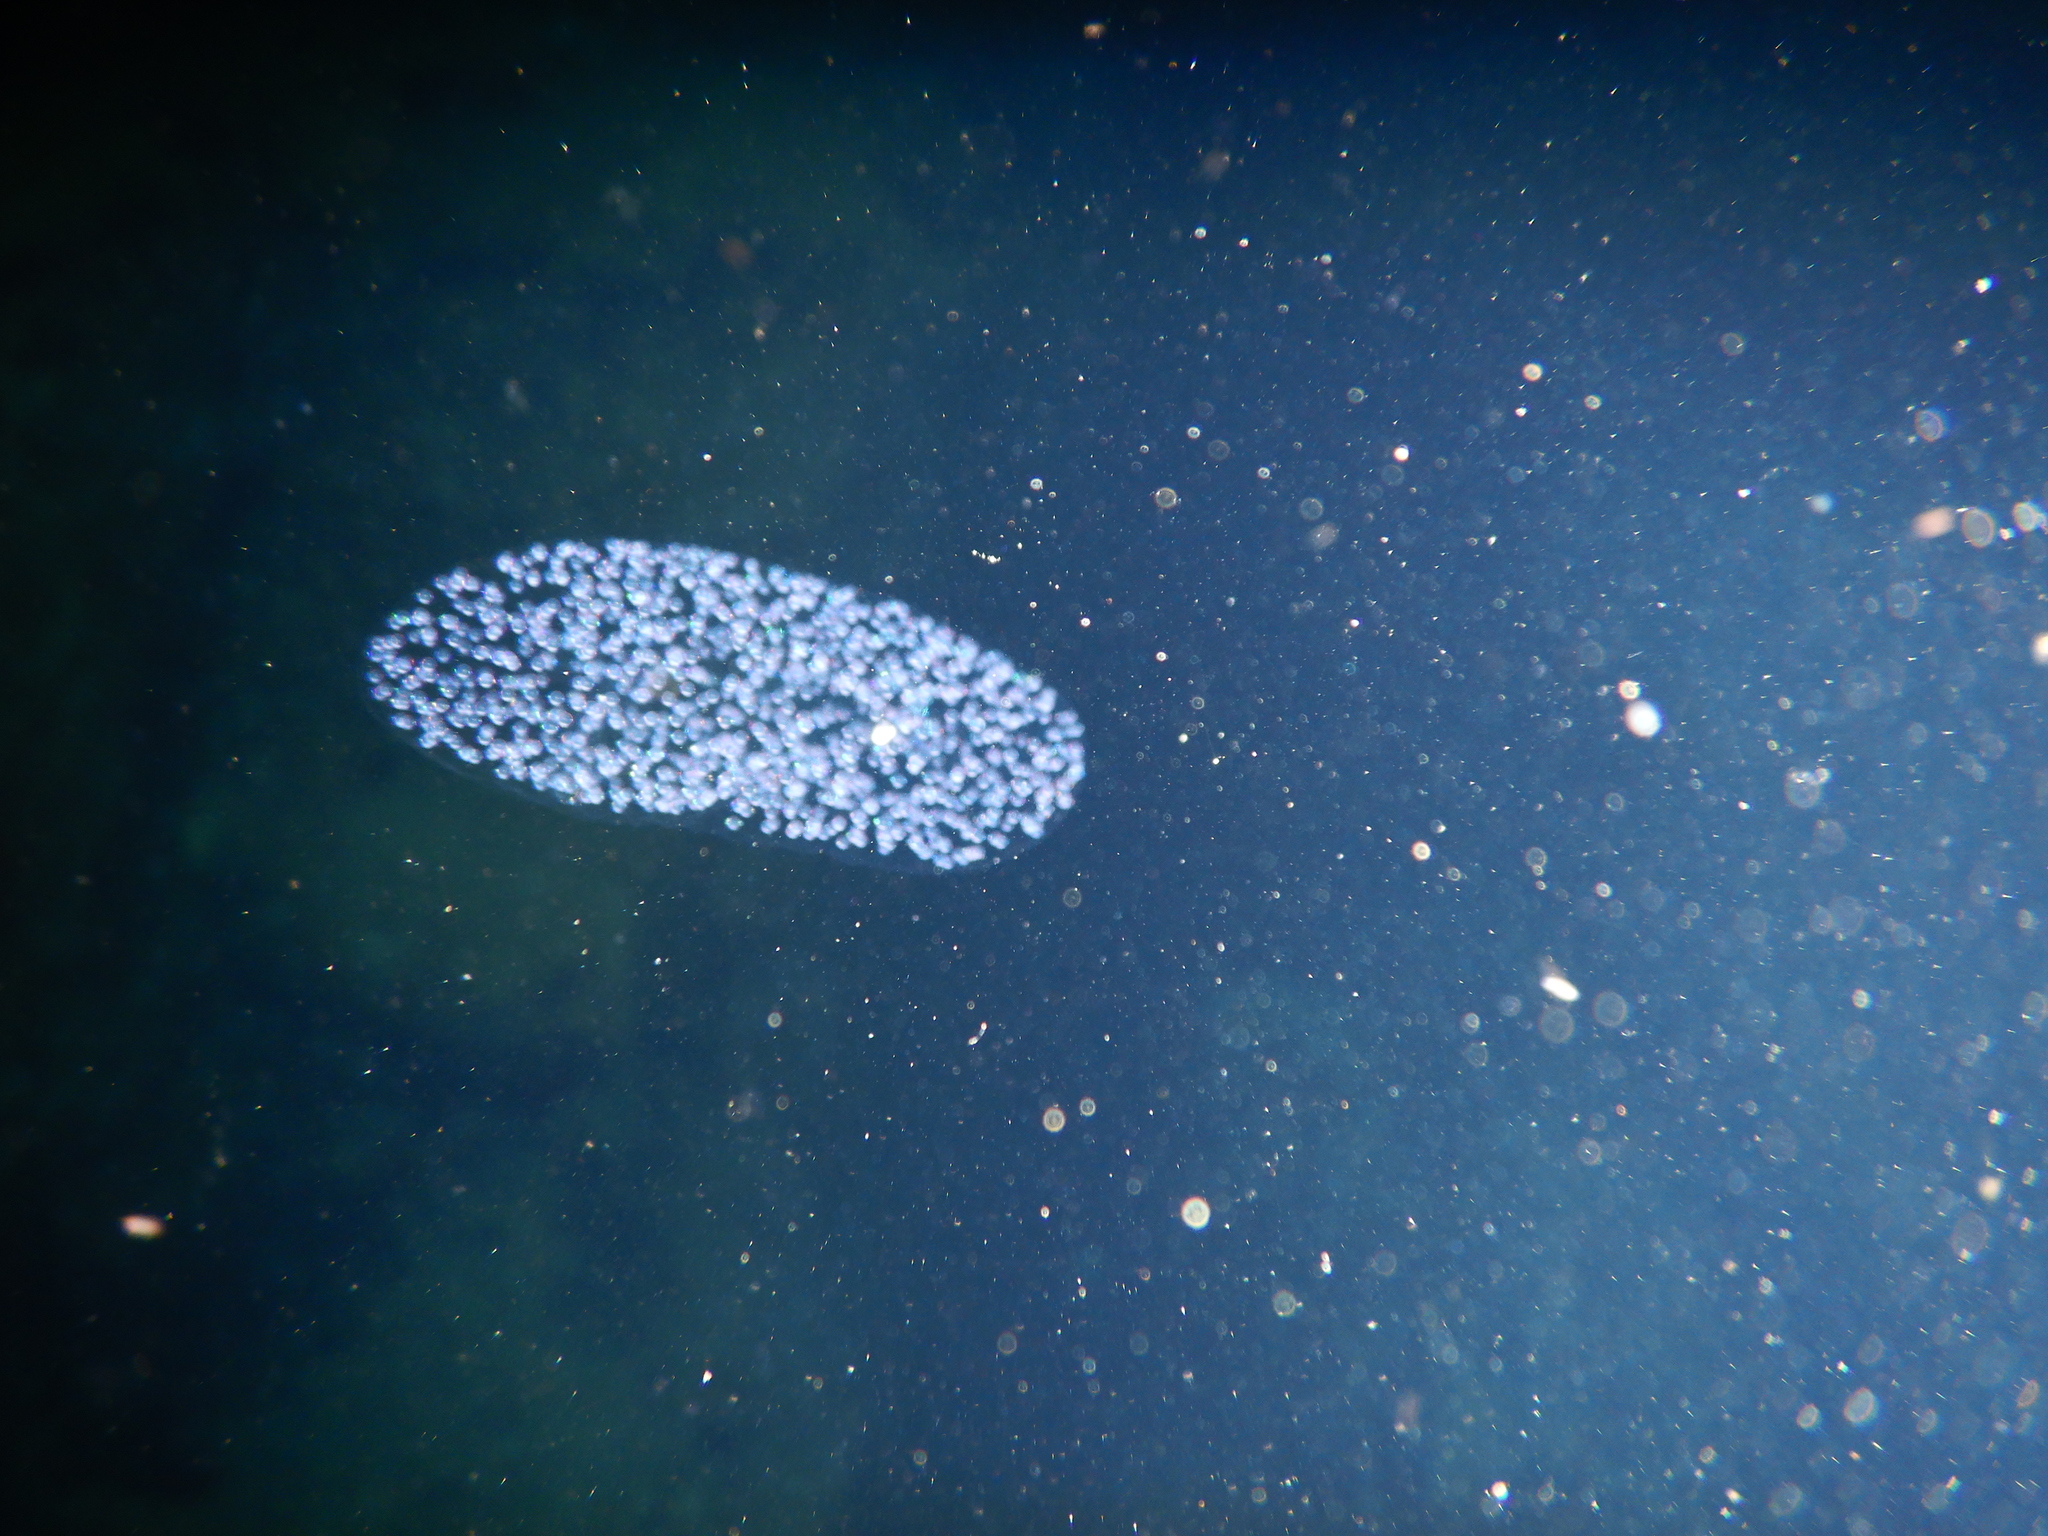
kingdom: Chromista
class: Polycystina
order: Nassellaria
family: Collozoidae
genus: Collozoum
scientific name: Collozoum inerme
